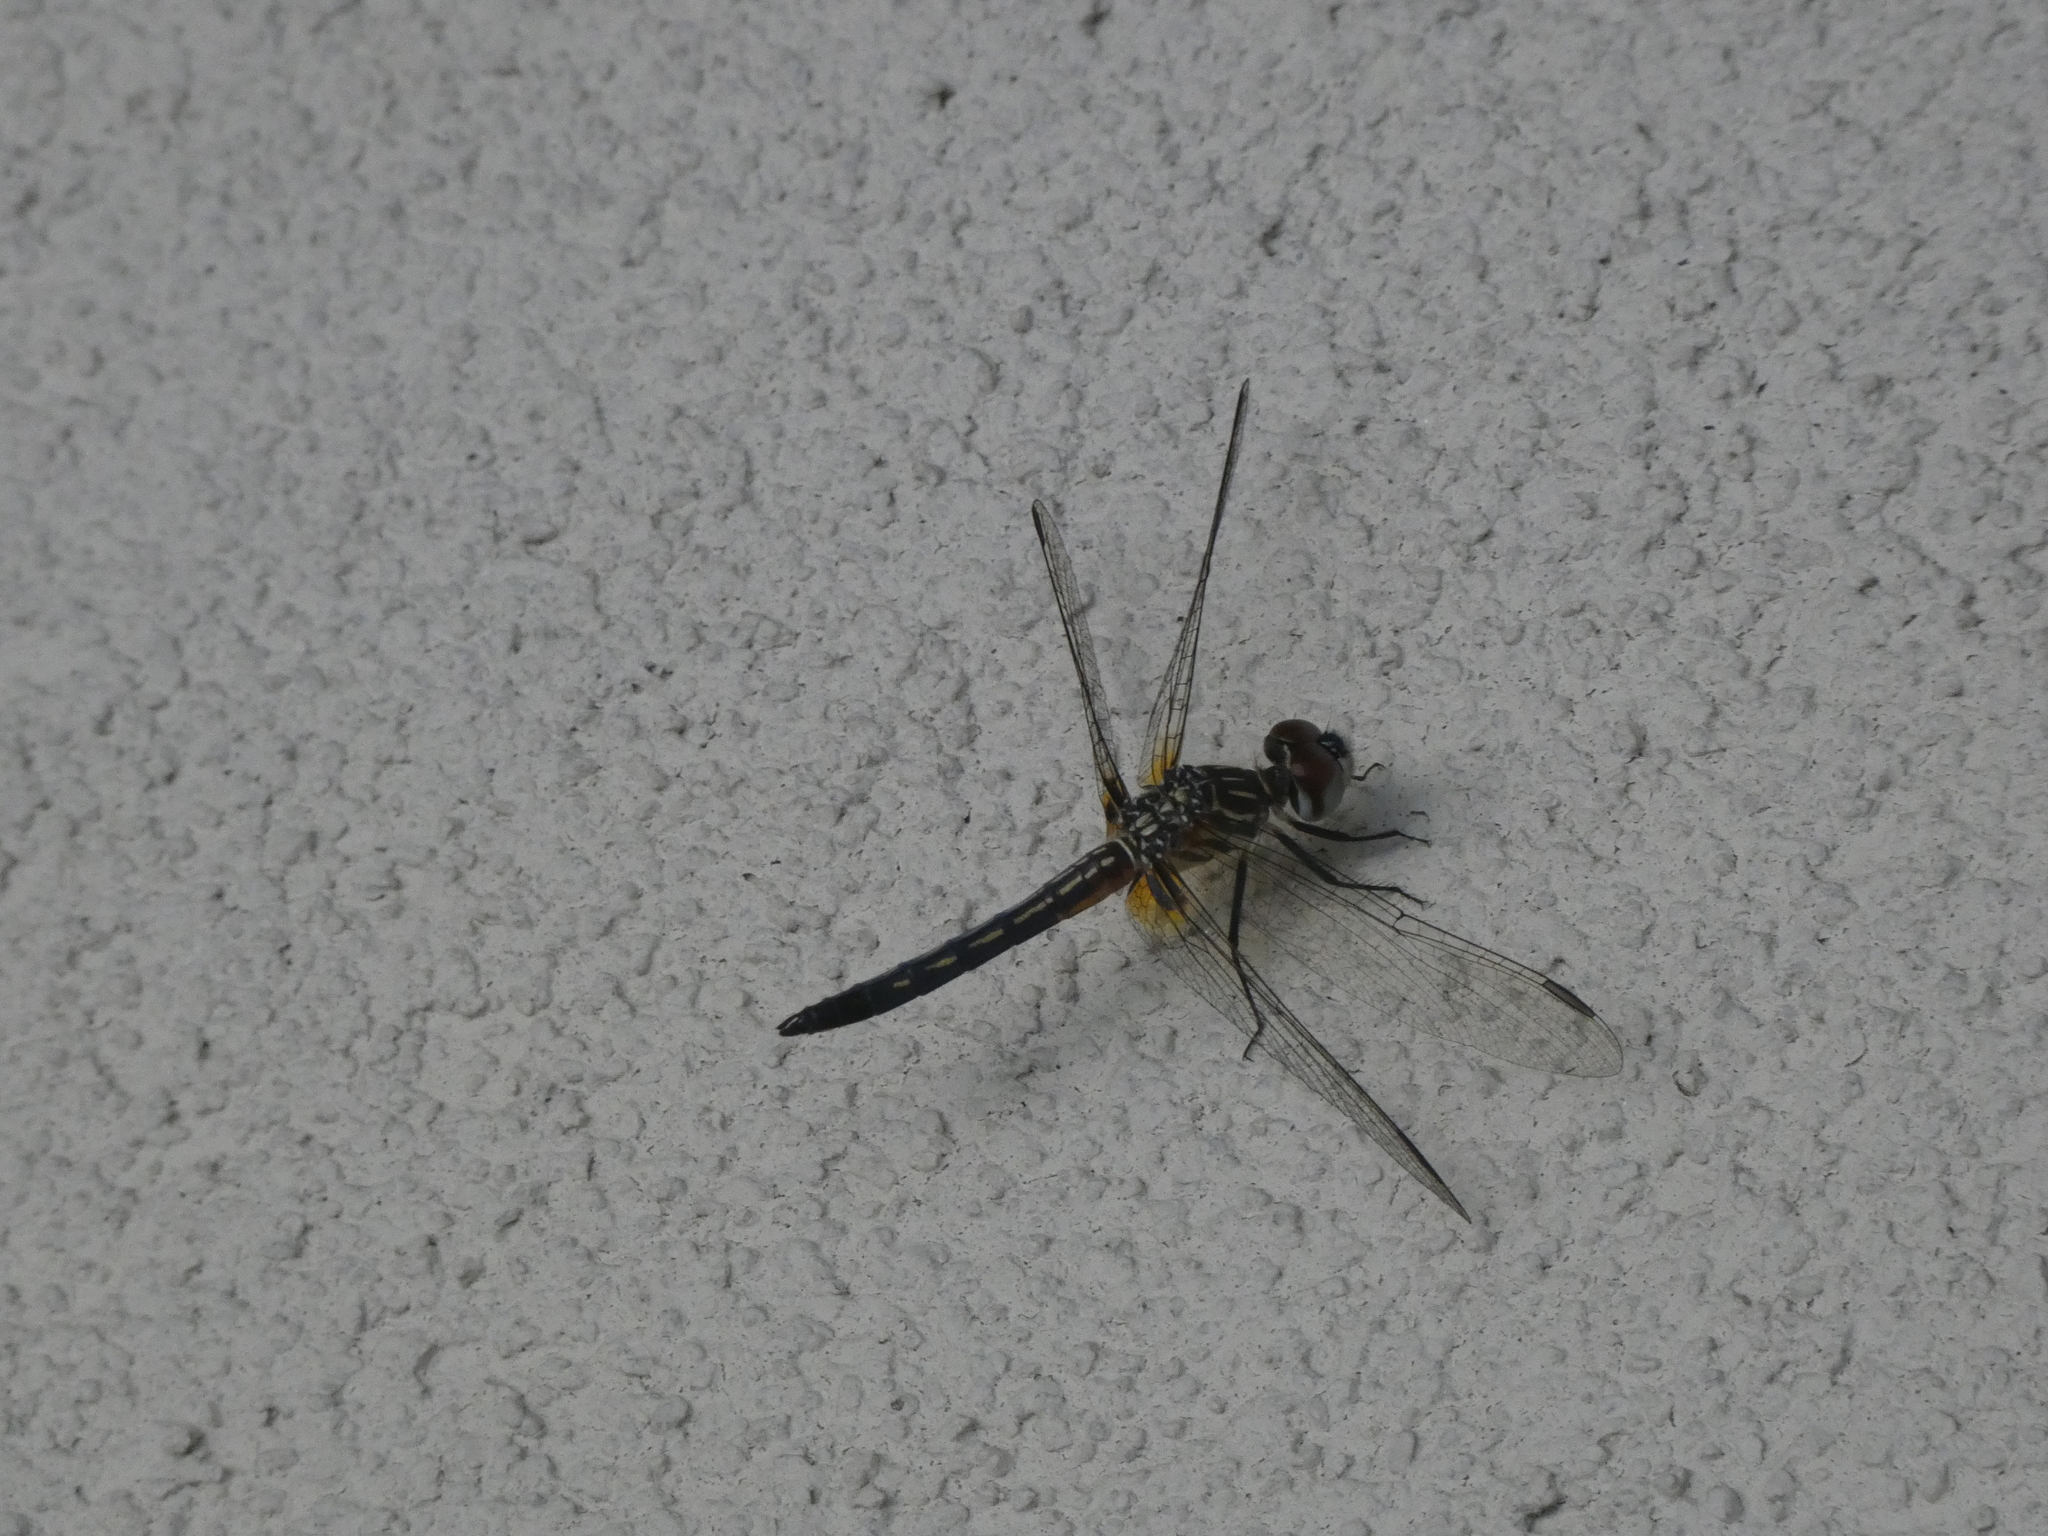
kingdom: Animalia
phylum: Arthropoda
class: Insecta
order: Odonata
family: Libellulidae
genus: Pachydiplax
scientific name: Pachydiplax longipennis
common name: Blue dasher
